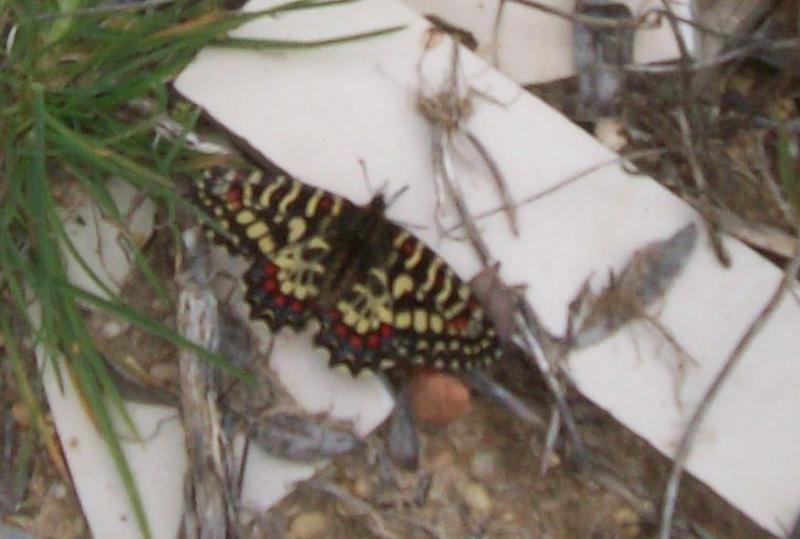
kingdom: Animalia
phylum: Arthropoda
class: Insecta
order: Lepidoptera
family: Papilionidae
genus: Zerynthia
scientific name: Zerynthia rumina
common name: Spanish festoon
